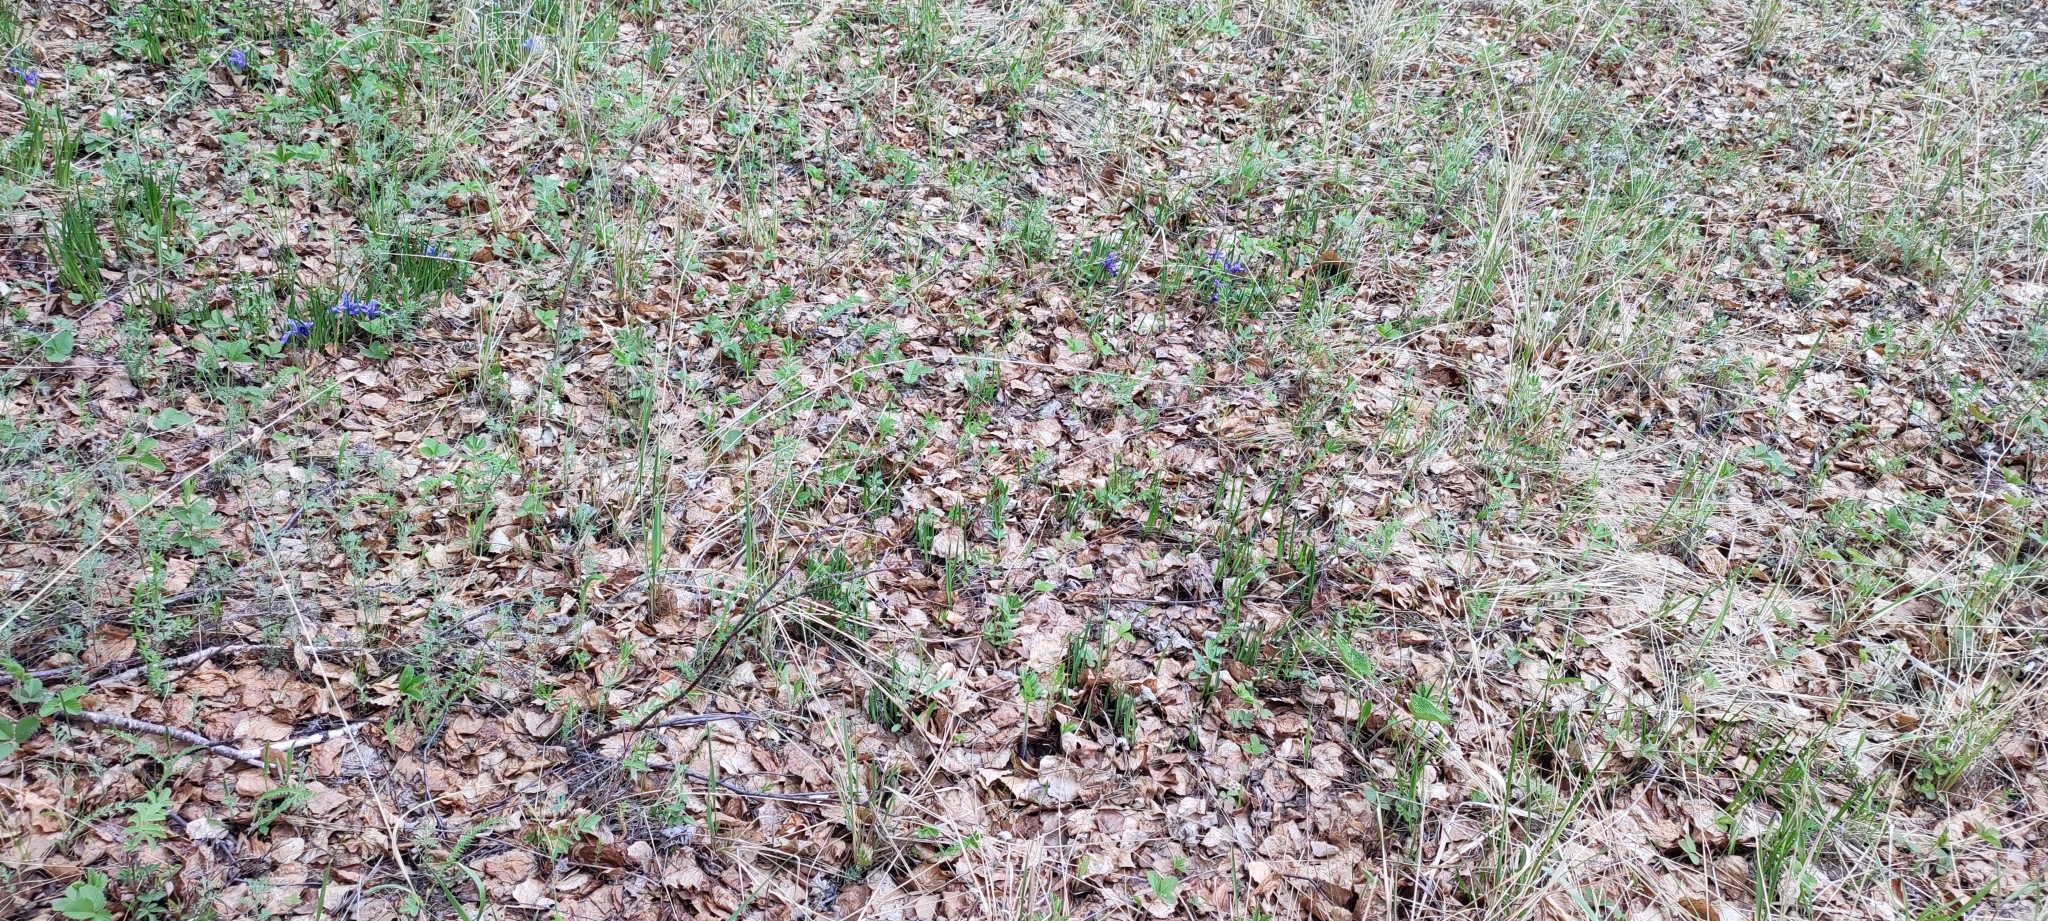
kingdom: Plantae
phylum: Tracheophyta
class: Liliopsida
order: Asparagales
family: Iridaceae
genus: Iris
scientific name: Iris ruthenica
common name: Purple-bract iris
